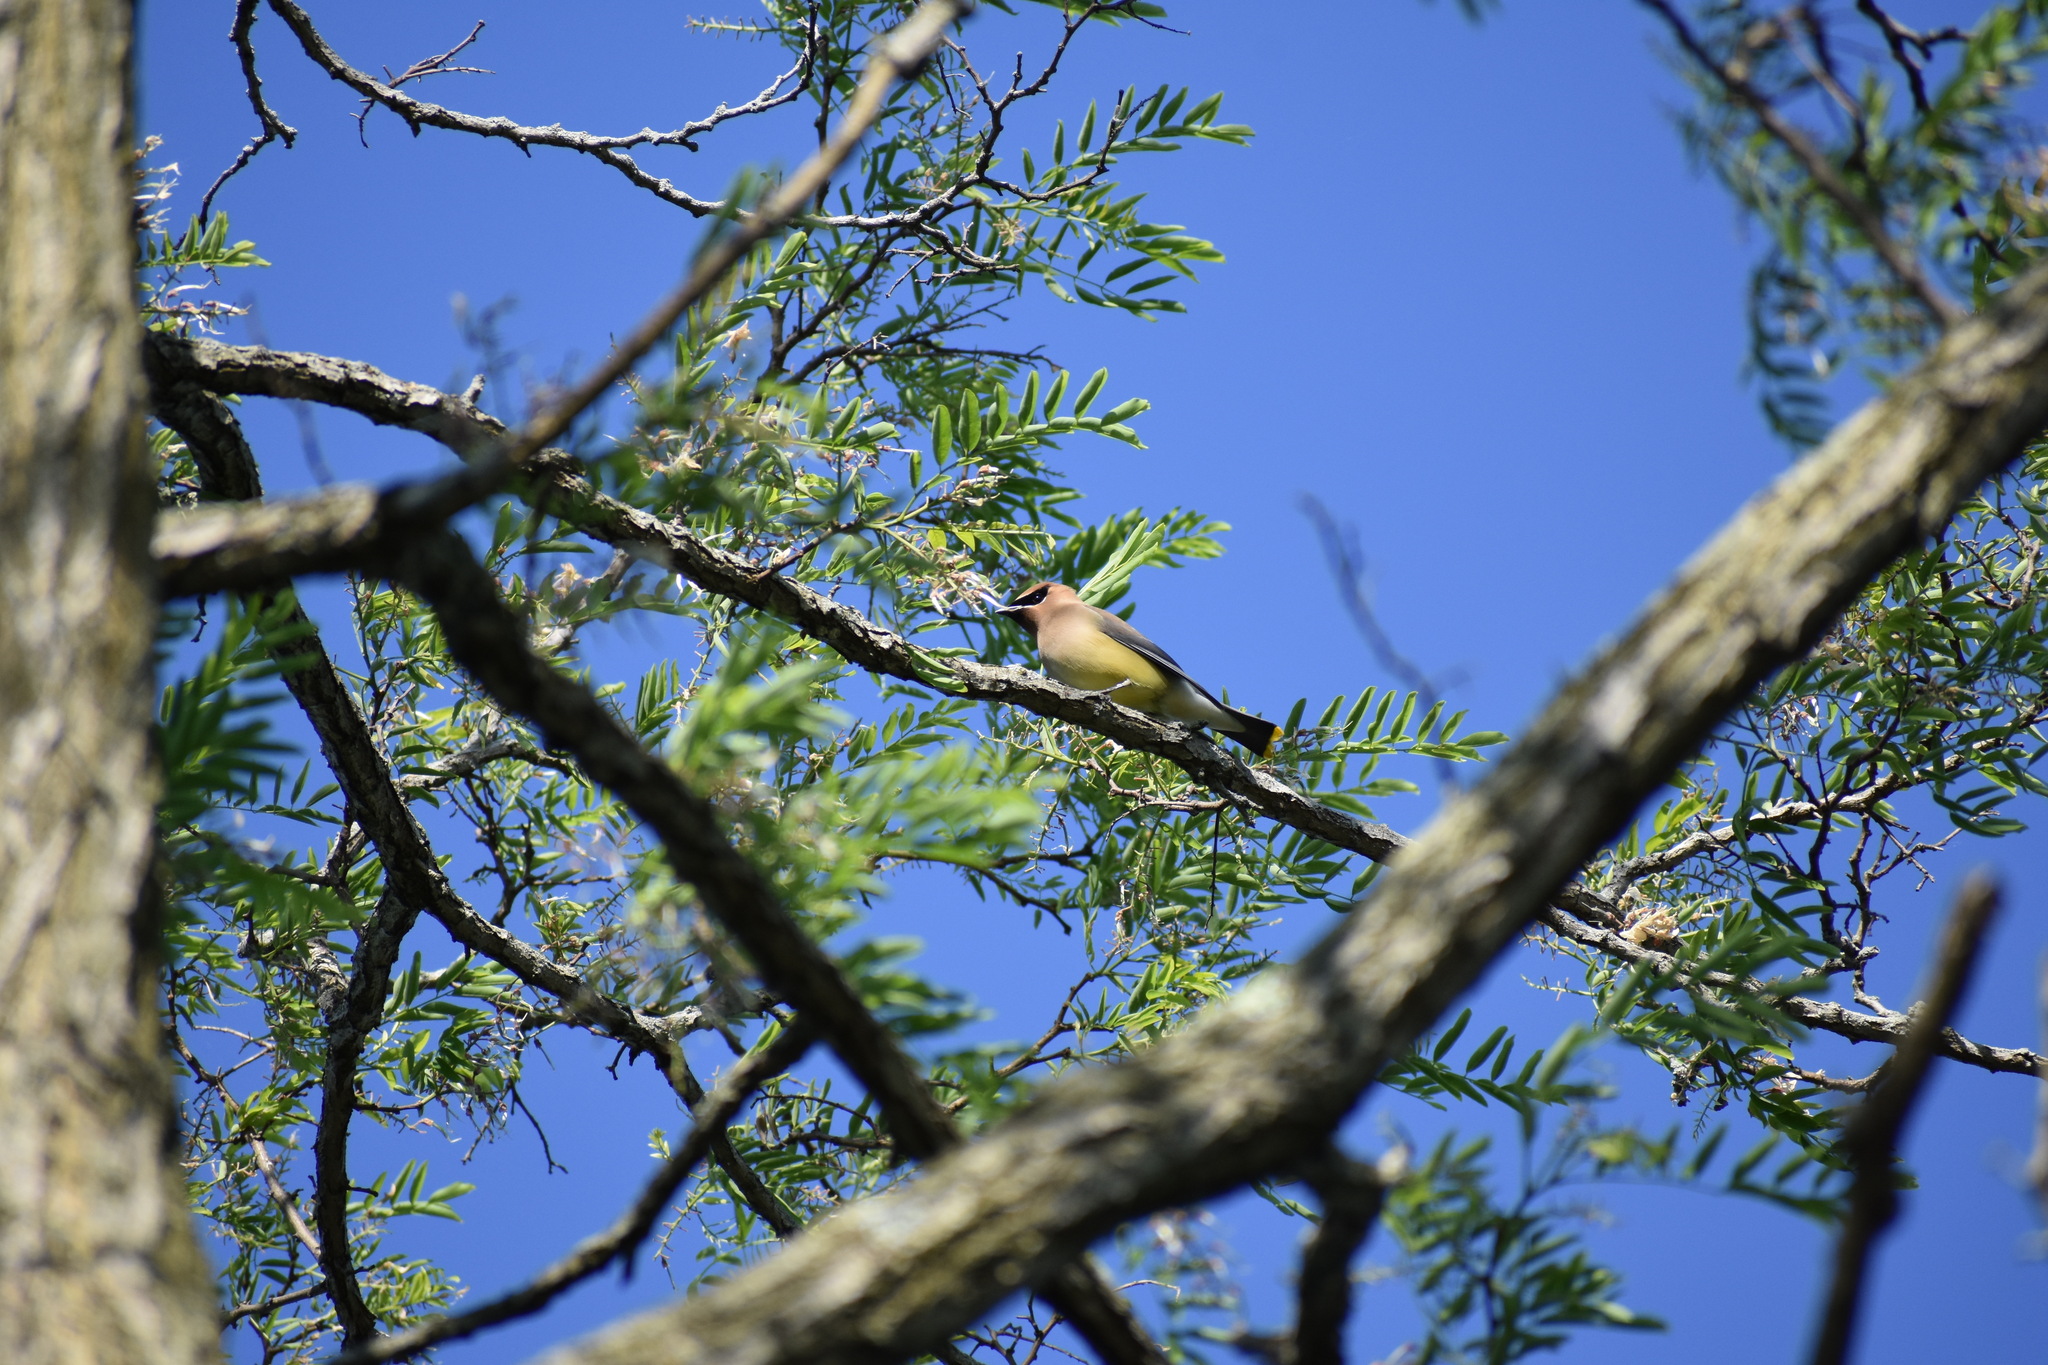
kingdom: Animalia
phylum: Chordata
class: Aves
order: Passeriformes
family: Bombycillidae
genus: Bombycilla
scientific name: Bombycilla cedrorum
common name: Cedar waxwing
